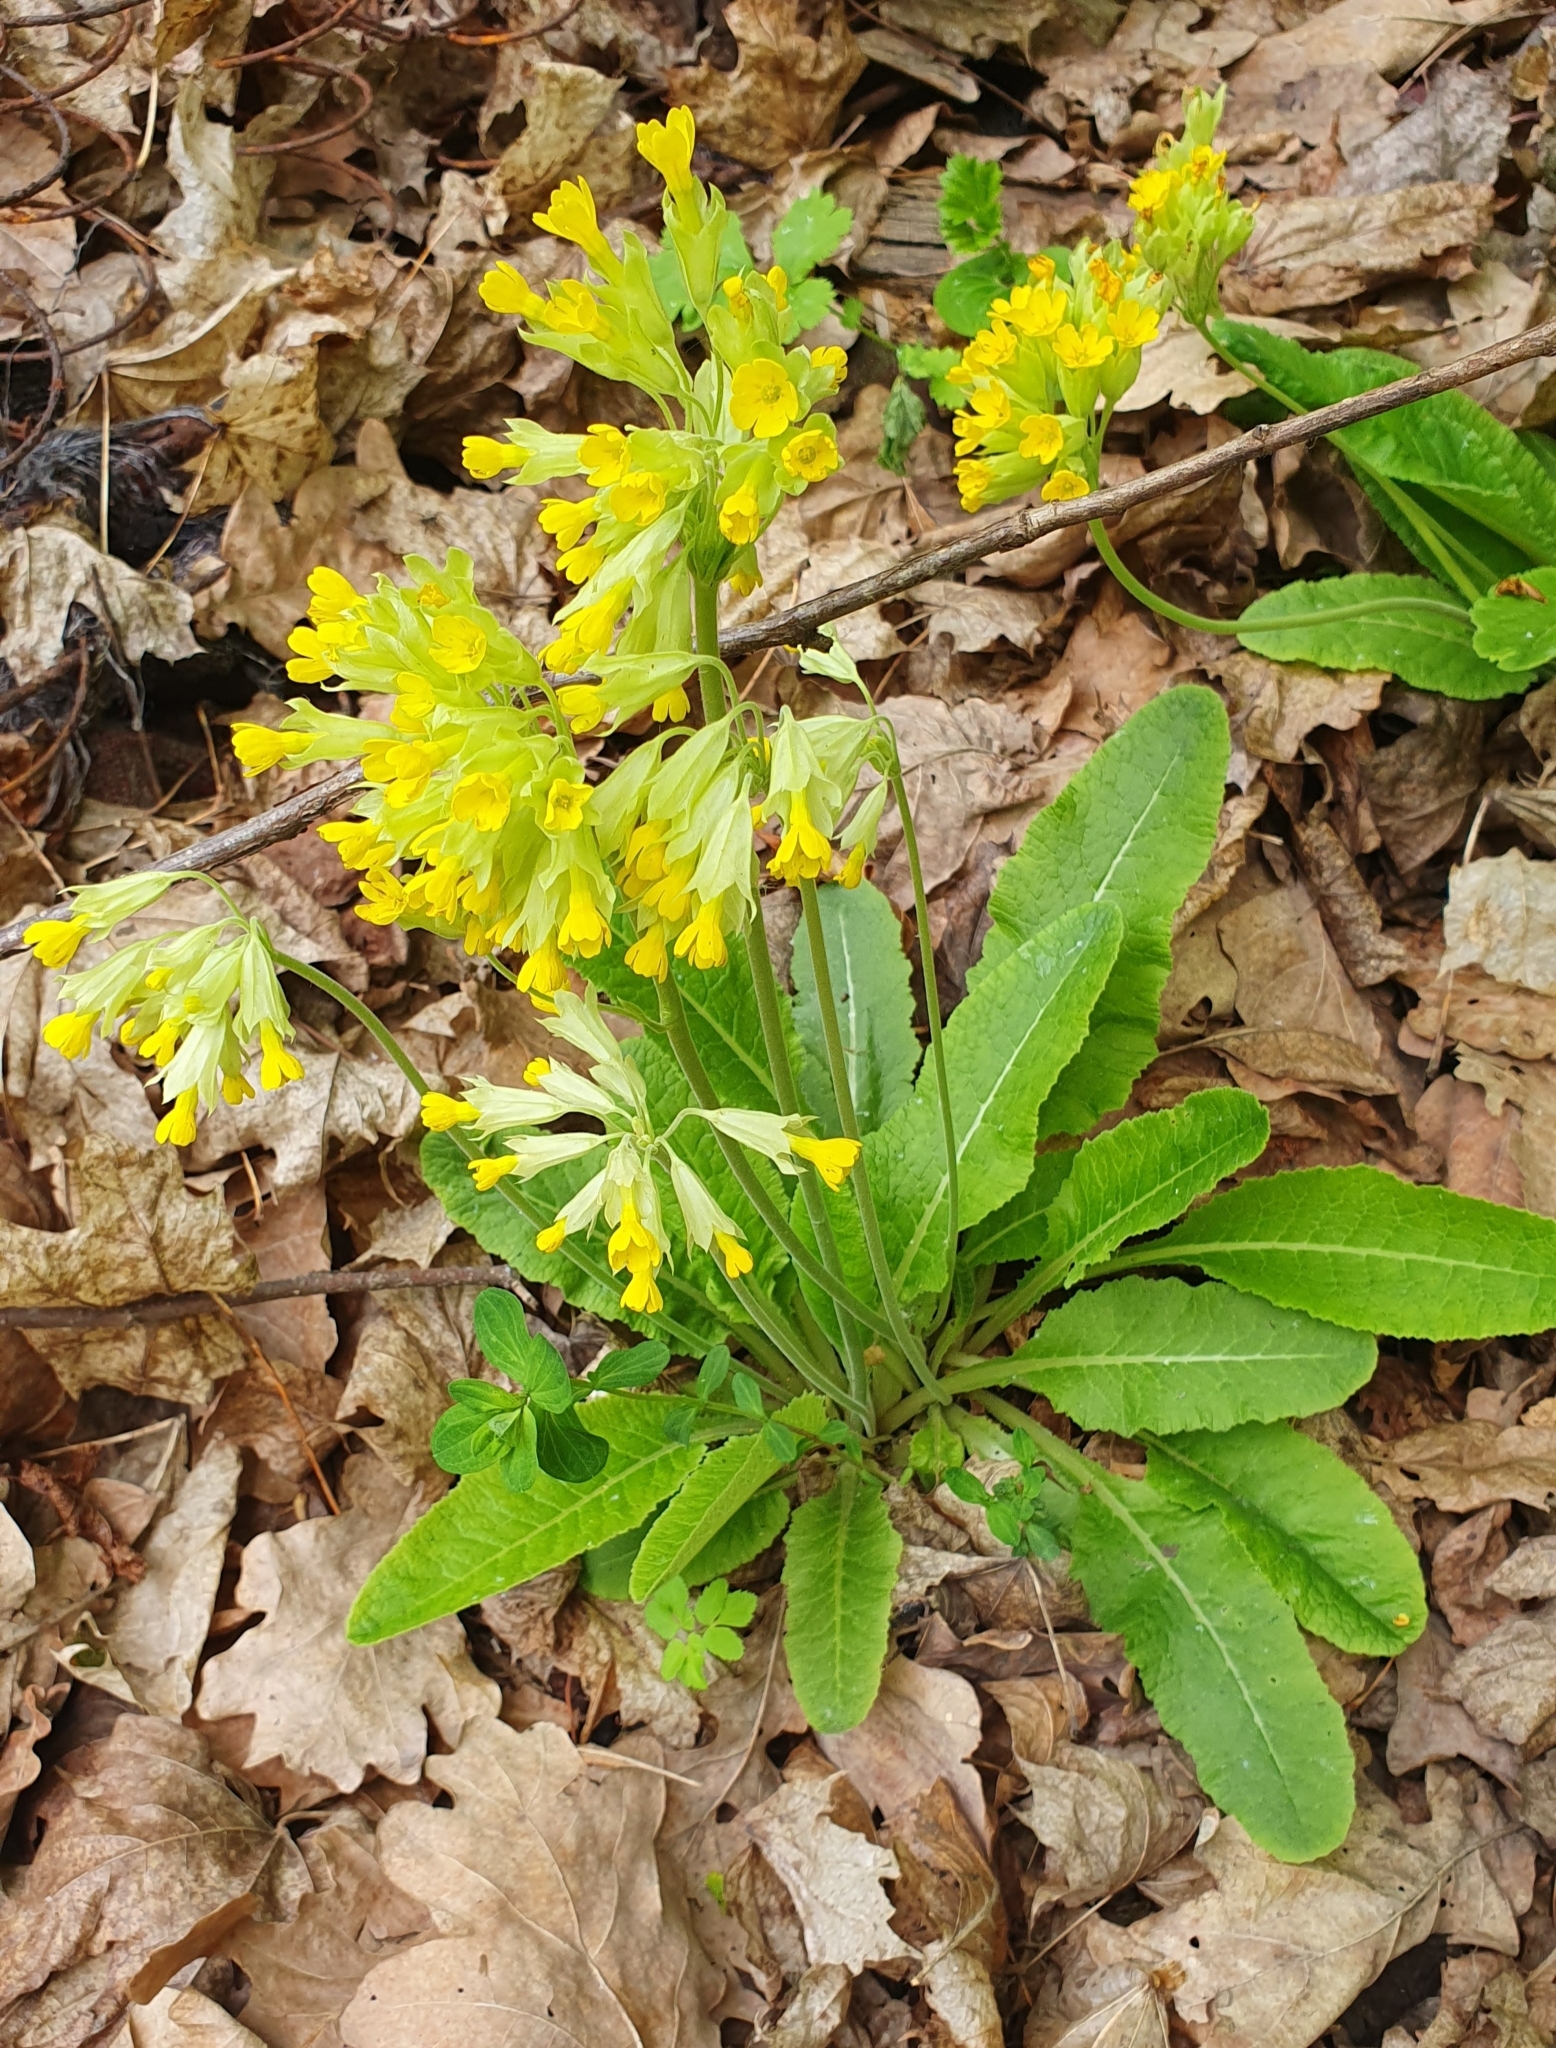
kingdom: Plantae
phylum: Tracheophyta
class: Magnoliopsida
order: Ericales
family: Primulaceae
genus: Primula
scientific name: Primula veris
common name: Cowslip
